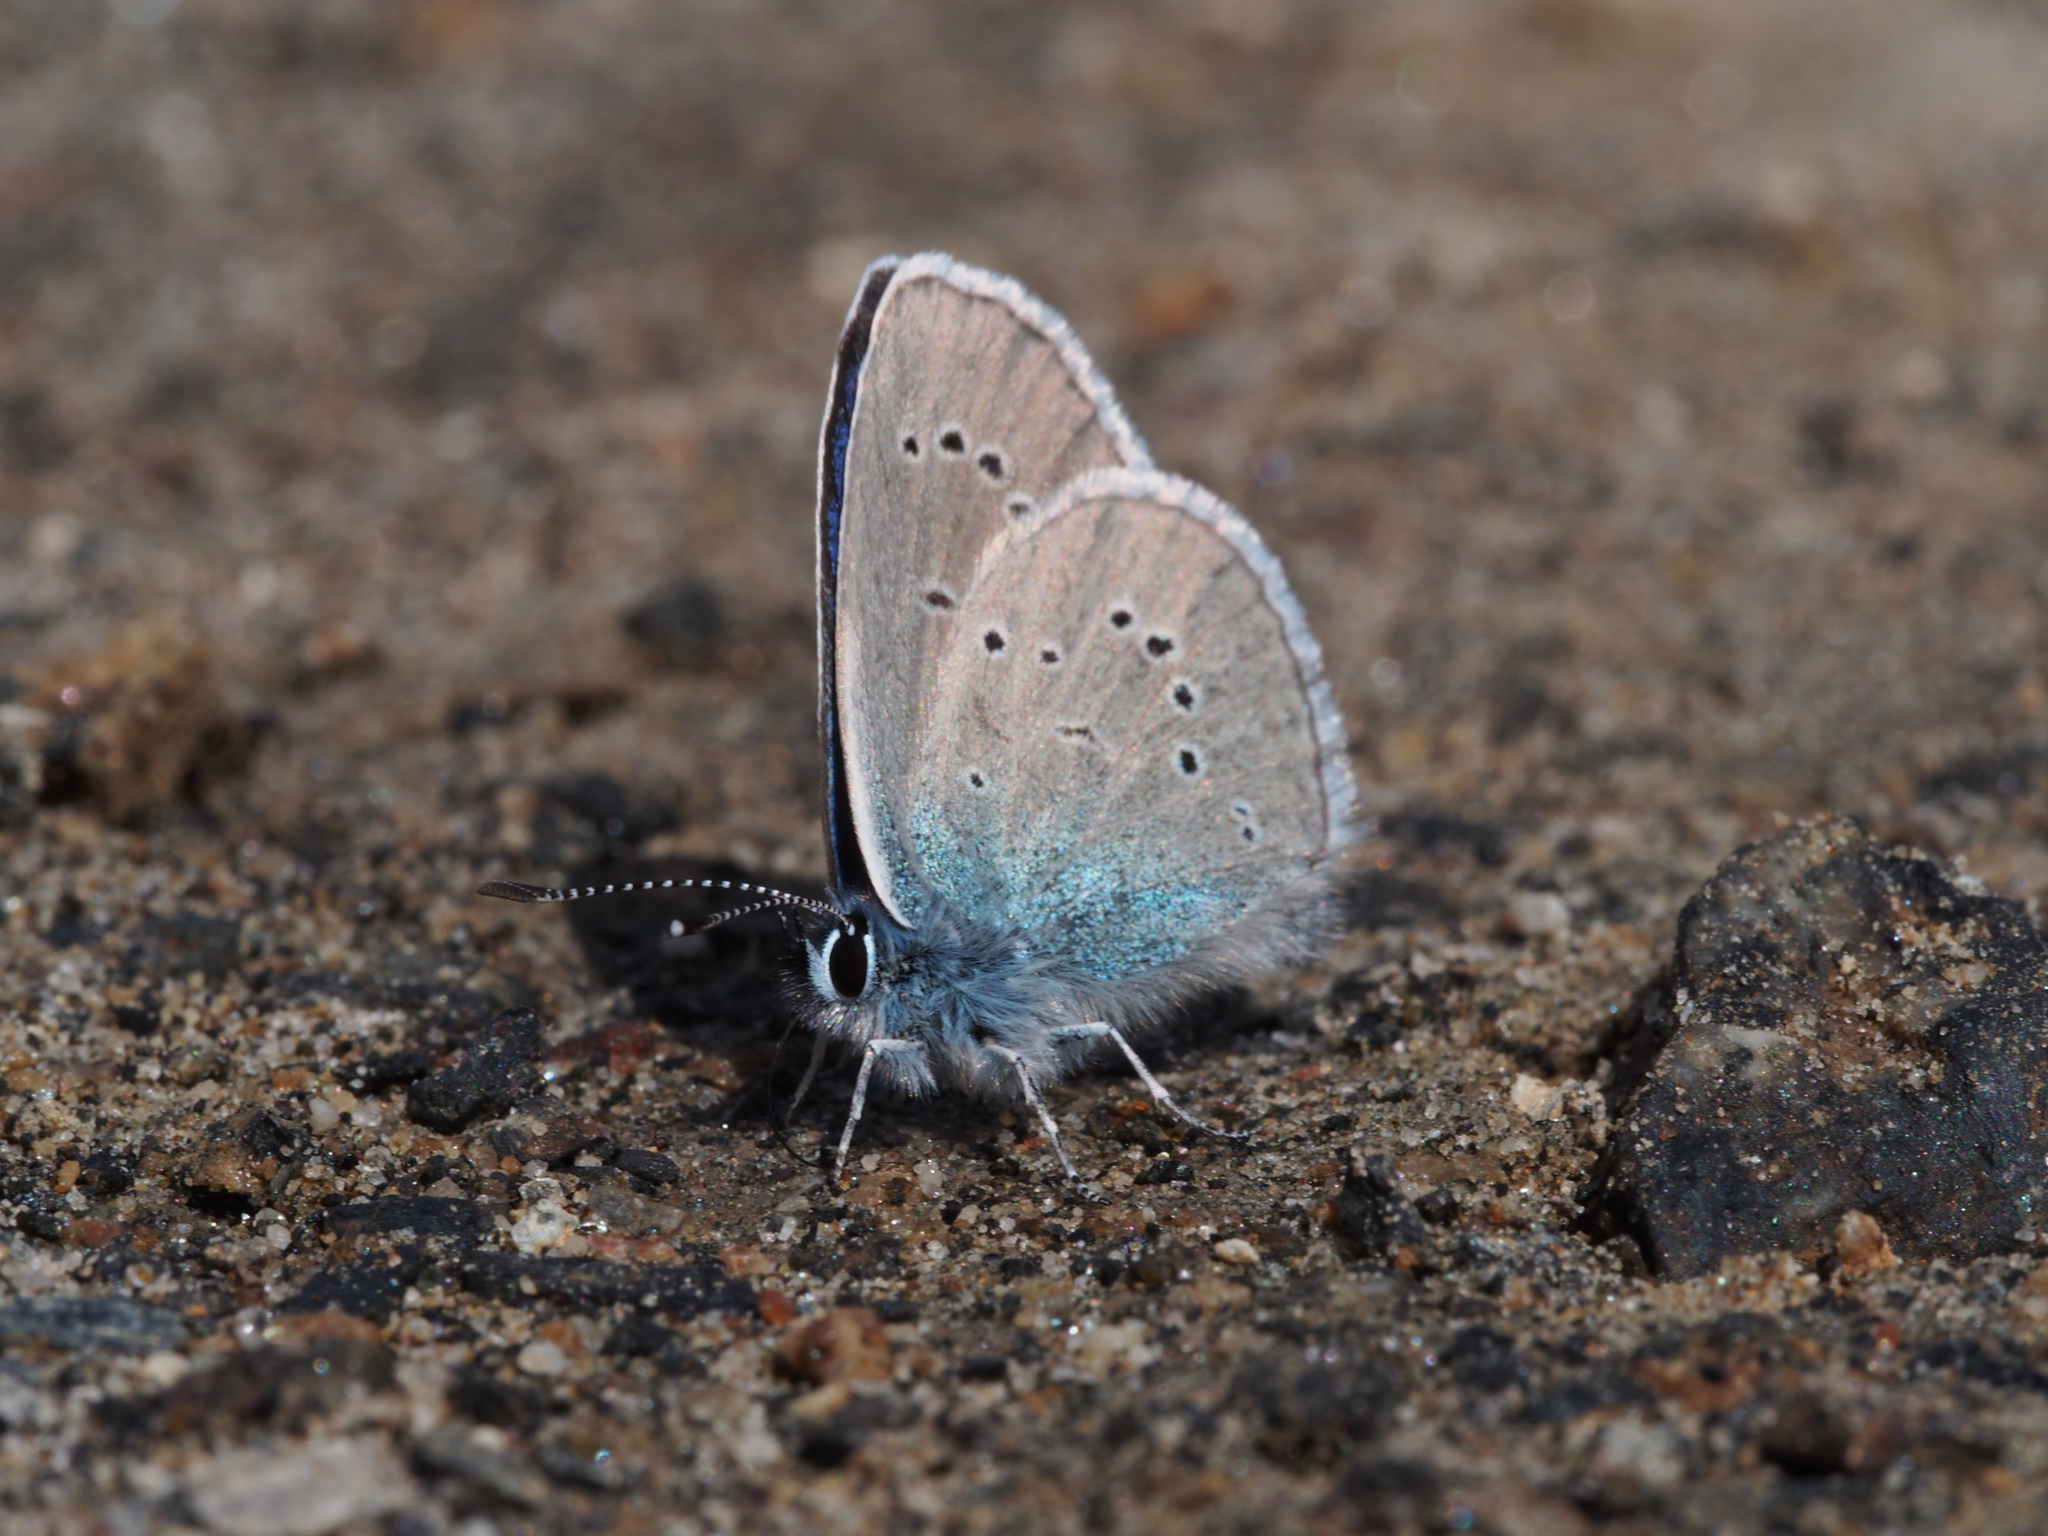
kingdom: Animalia
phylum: Arthropoda
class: Insecta
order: Lepidoptera
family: Lycaenidae
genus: Cyaniris
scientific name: Cyaniris semiargus
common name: Mazarine blue
